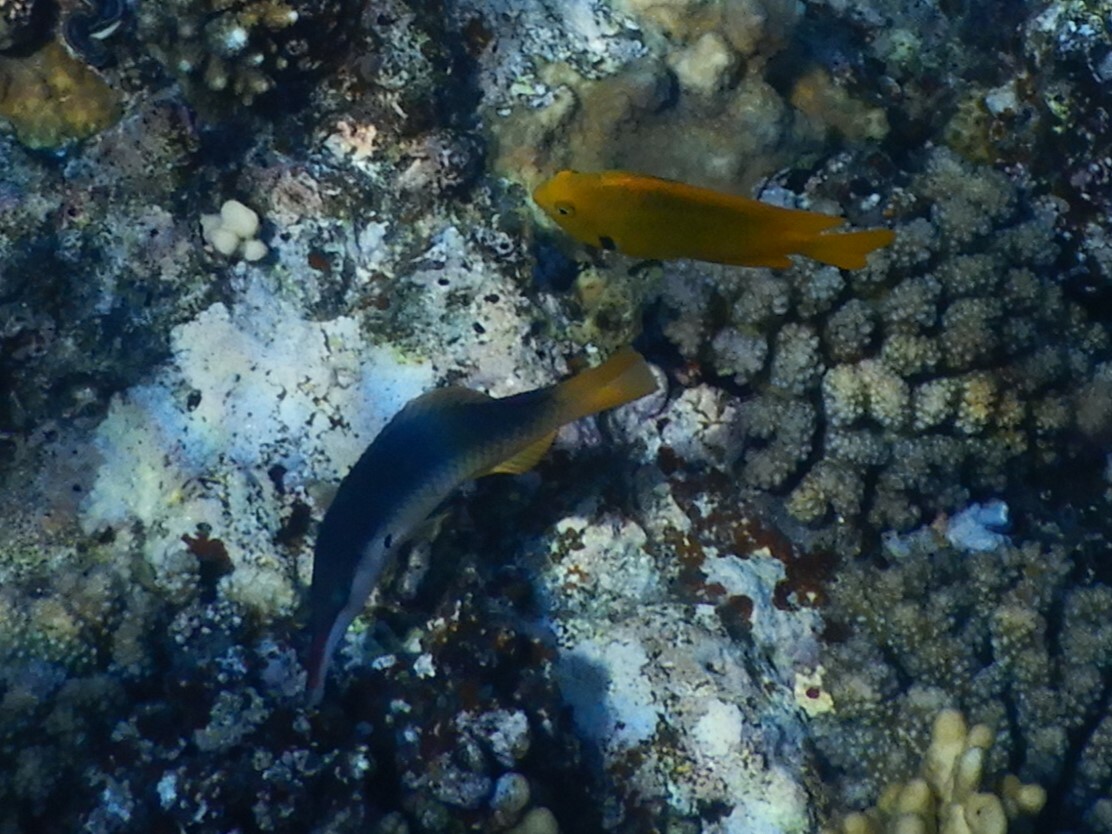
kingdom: Animalia
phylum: Chordata
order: Perciformes
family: Pomacentridae
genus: Pomacentrus
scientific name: Pomacentrus sulfureus
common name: Sulfur damsel
